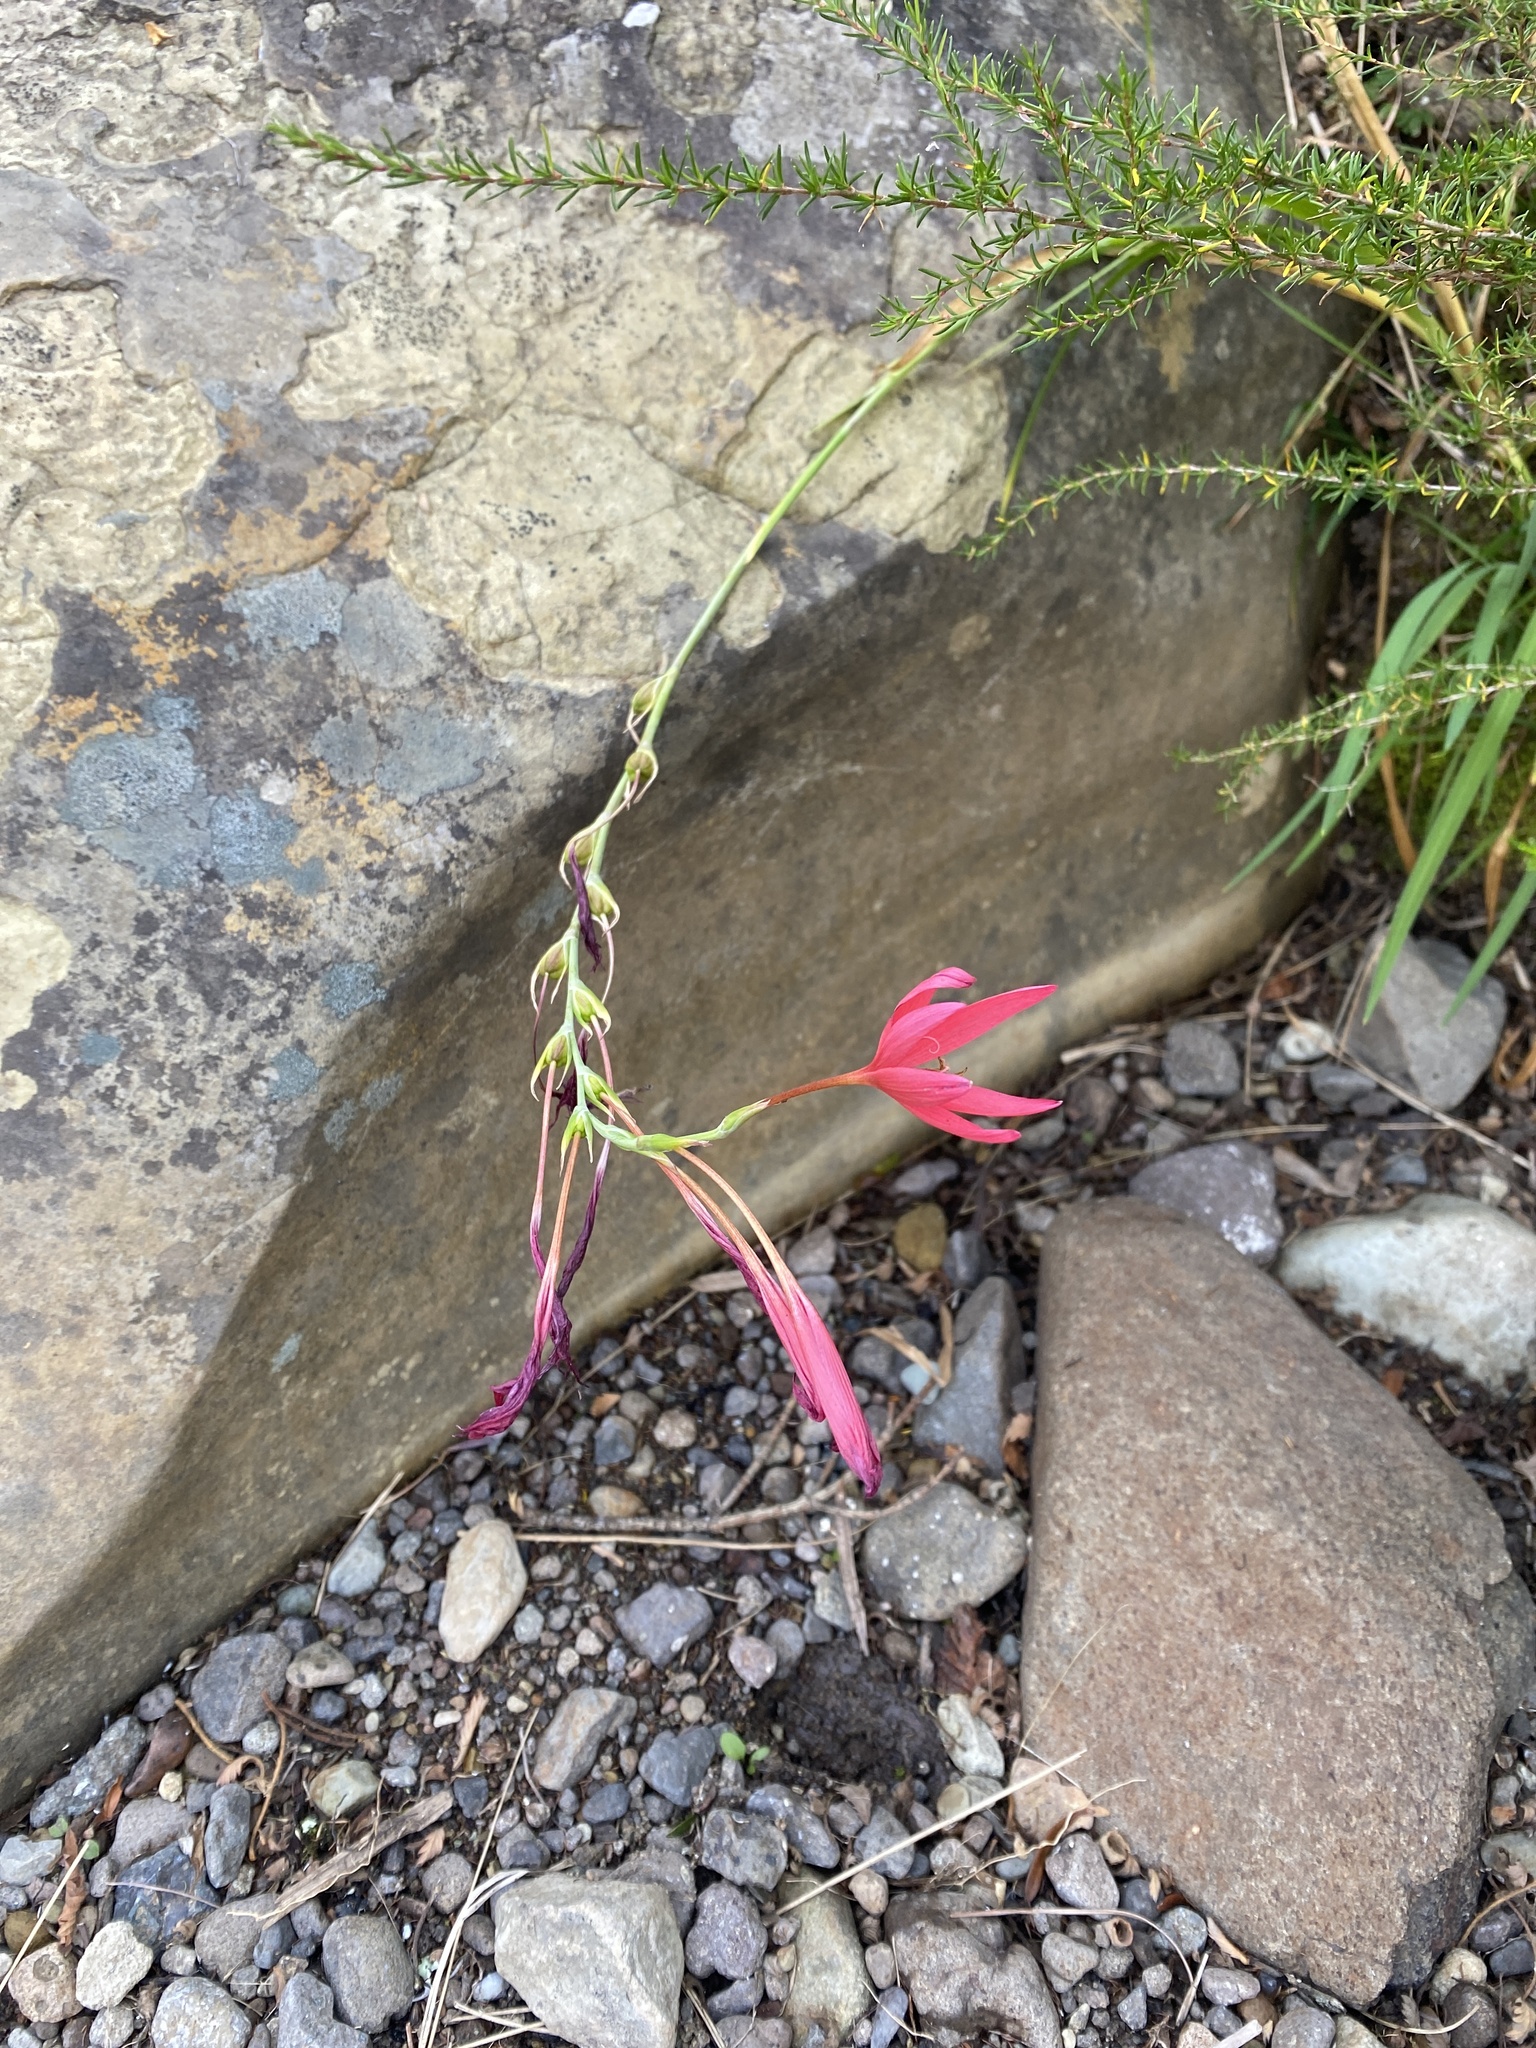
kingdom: Plantae
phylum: Tracheophyta
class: Liliopsida
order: Asparagales
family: Iridaceae
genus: Hesperantha
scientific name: Hesperantha coccinea
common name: River-lily
